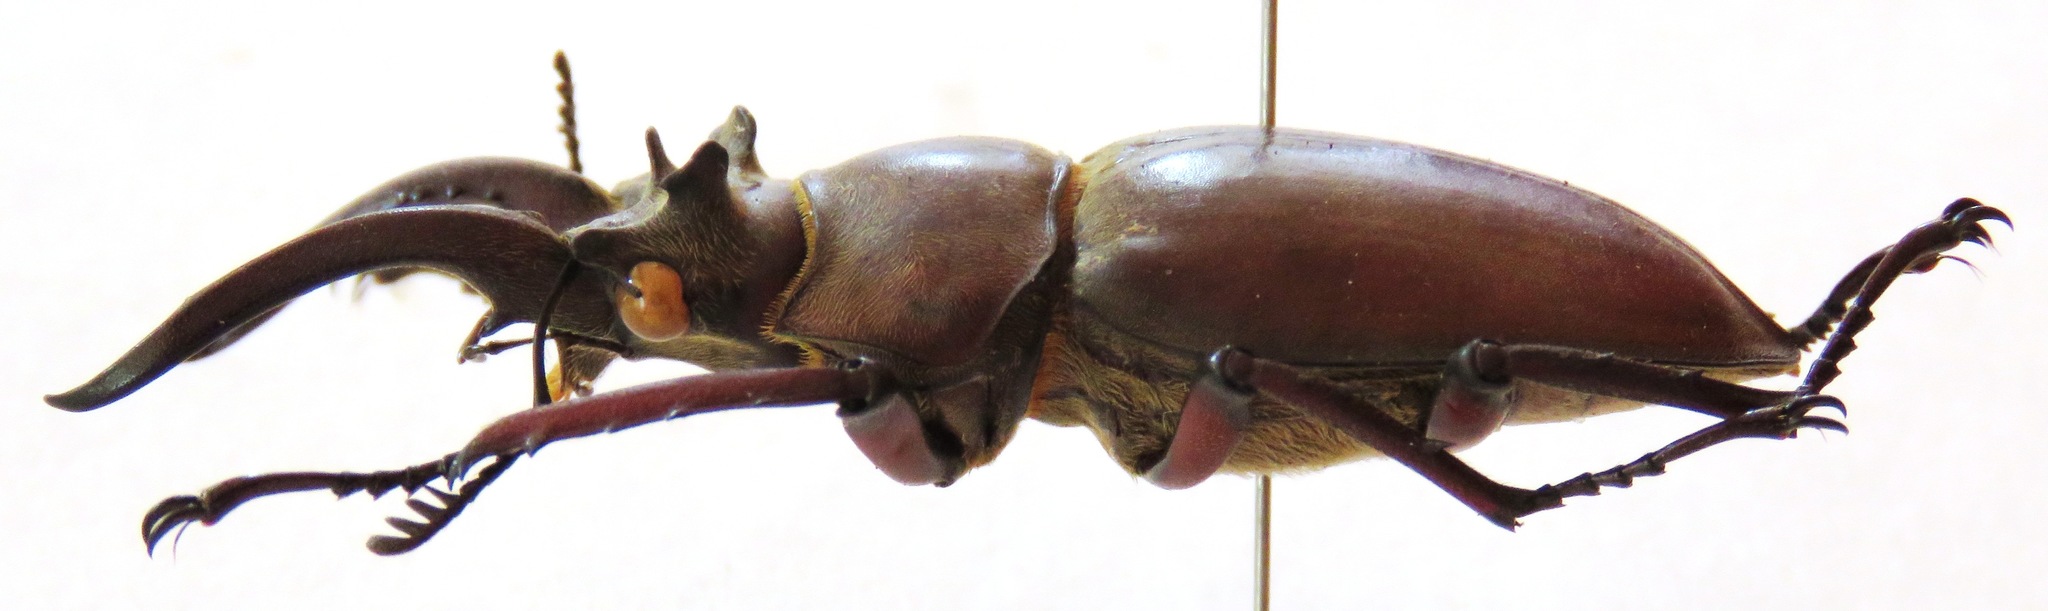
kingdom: Animalia
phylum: Arthropoda
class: Insecta
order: Coleoptera
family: Lucanidae
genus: Lucanus
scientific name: Lucanus laminifer
